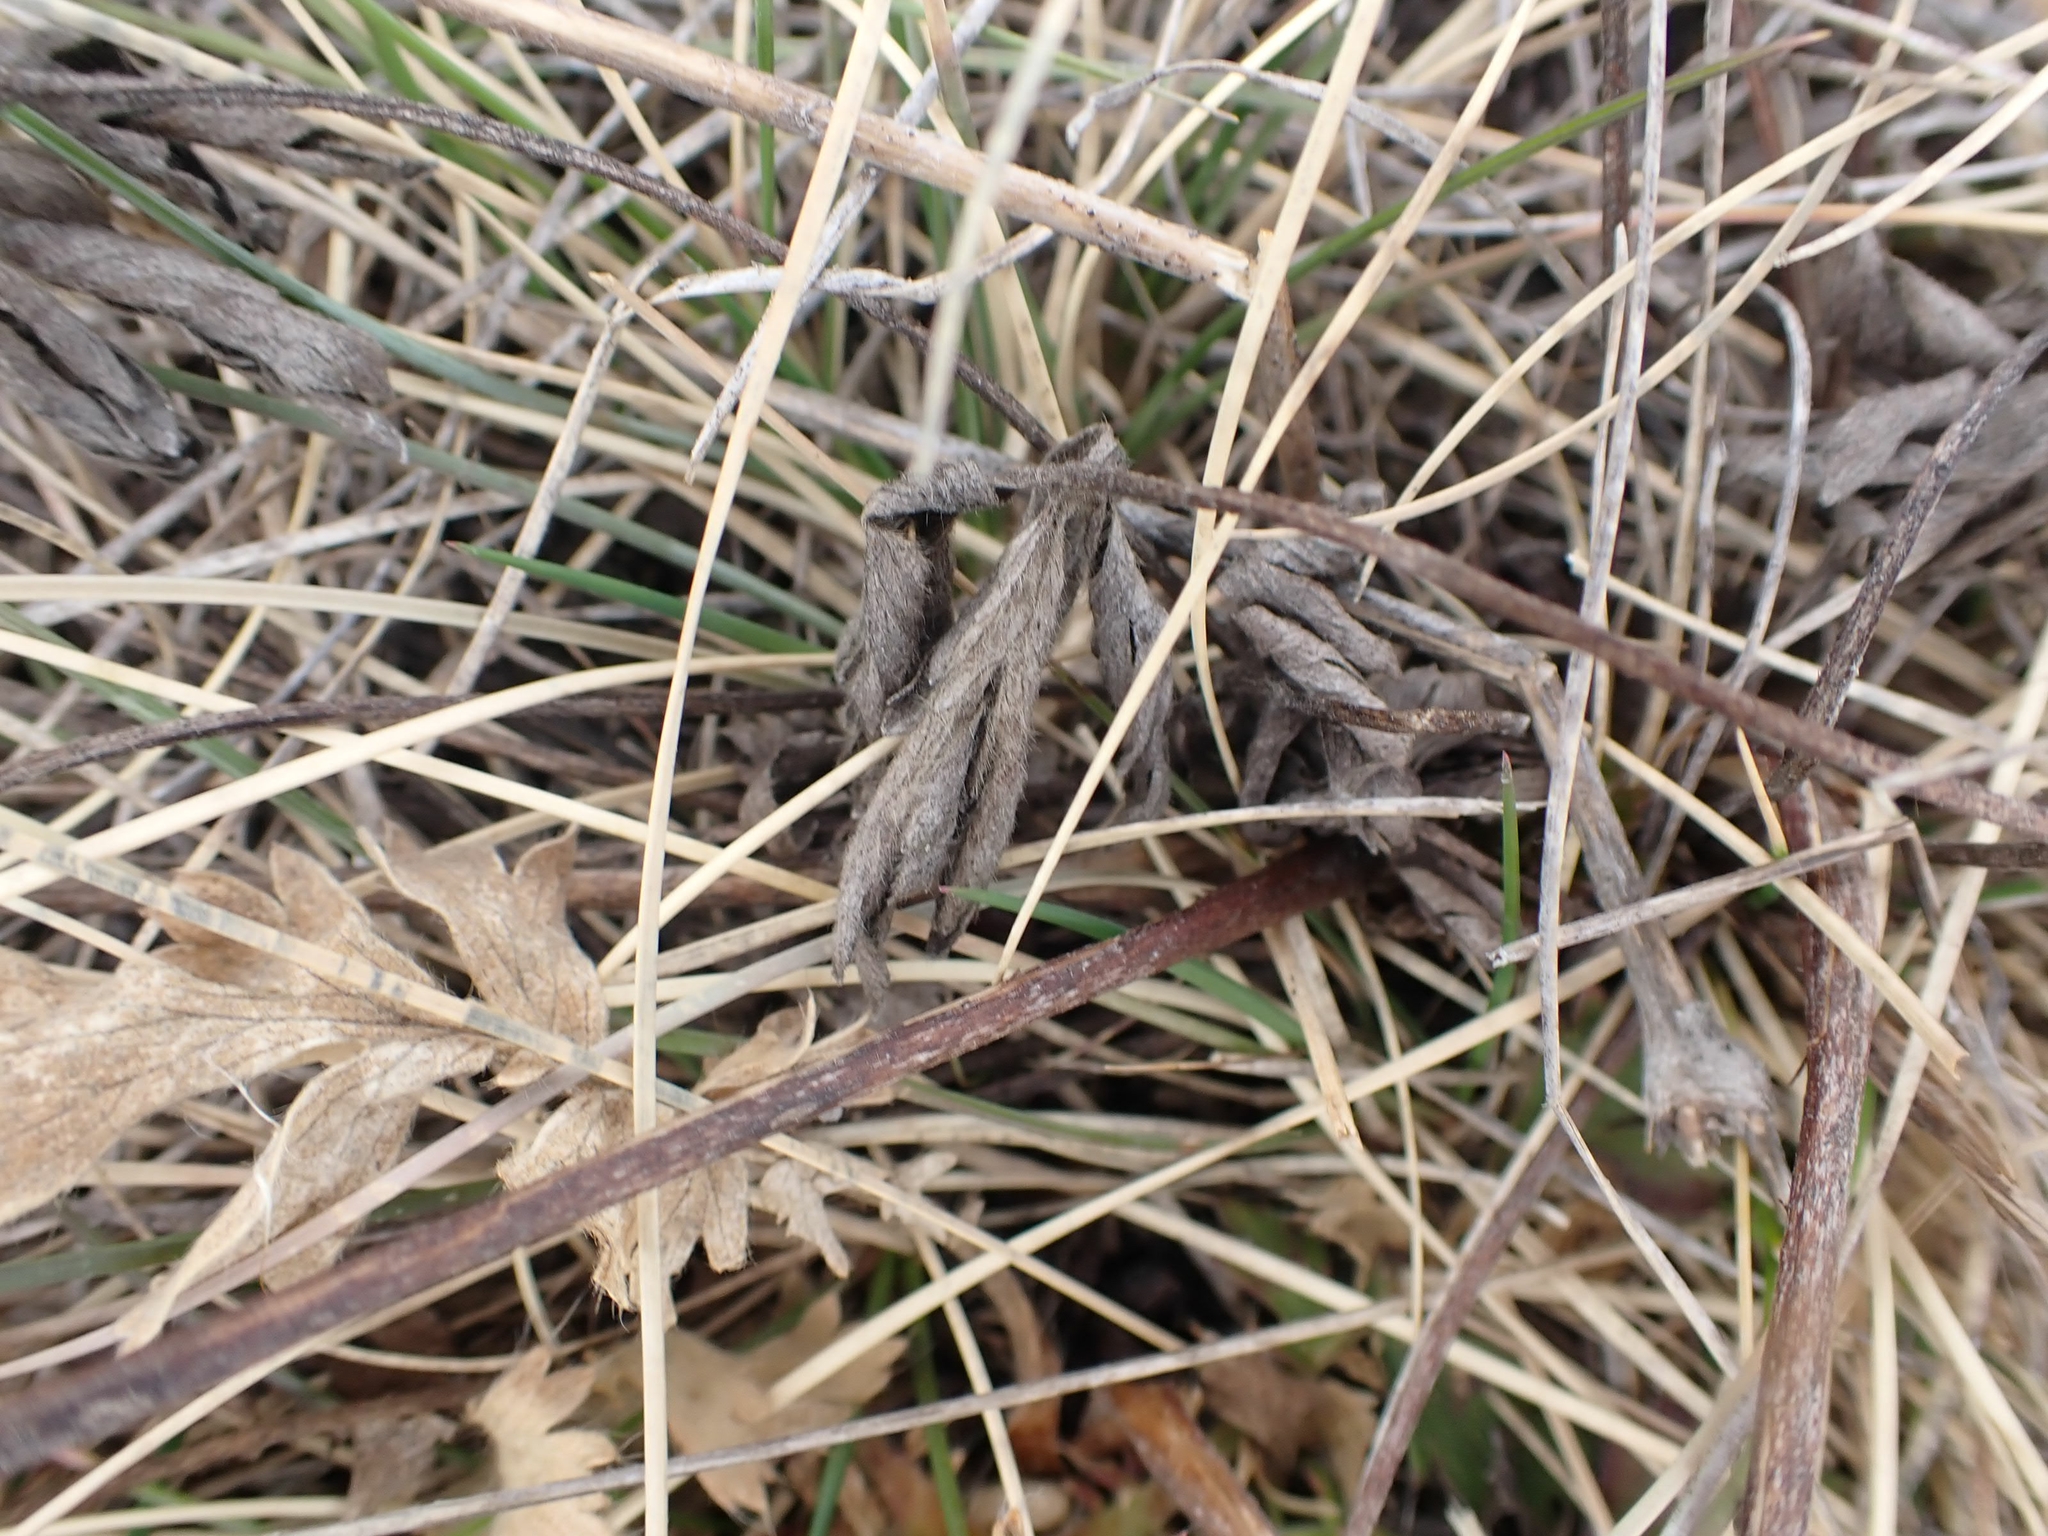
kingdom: Plantae
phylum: Tracheophyta
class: Magnoliopsida
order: Ranunculales
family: Ranunculaceae
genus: Anemone
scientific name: Anemone cylindrica
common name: Candle anemone
